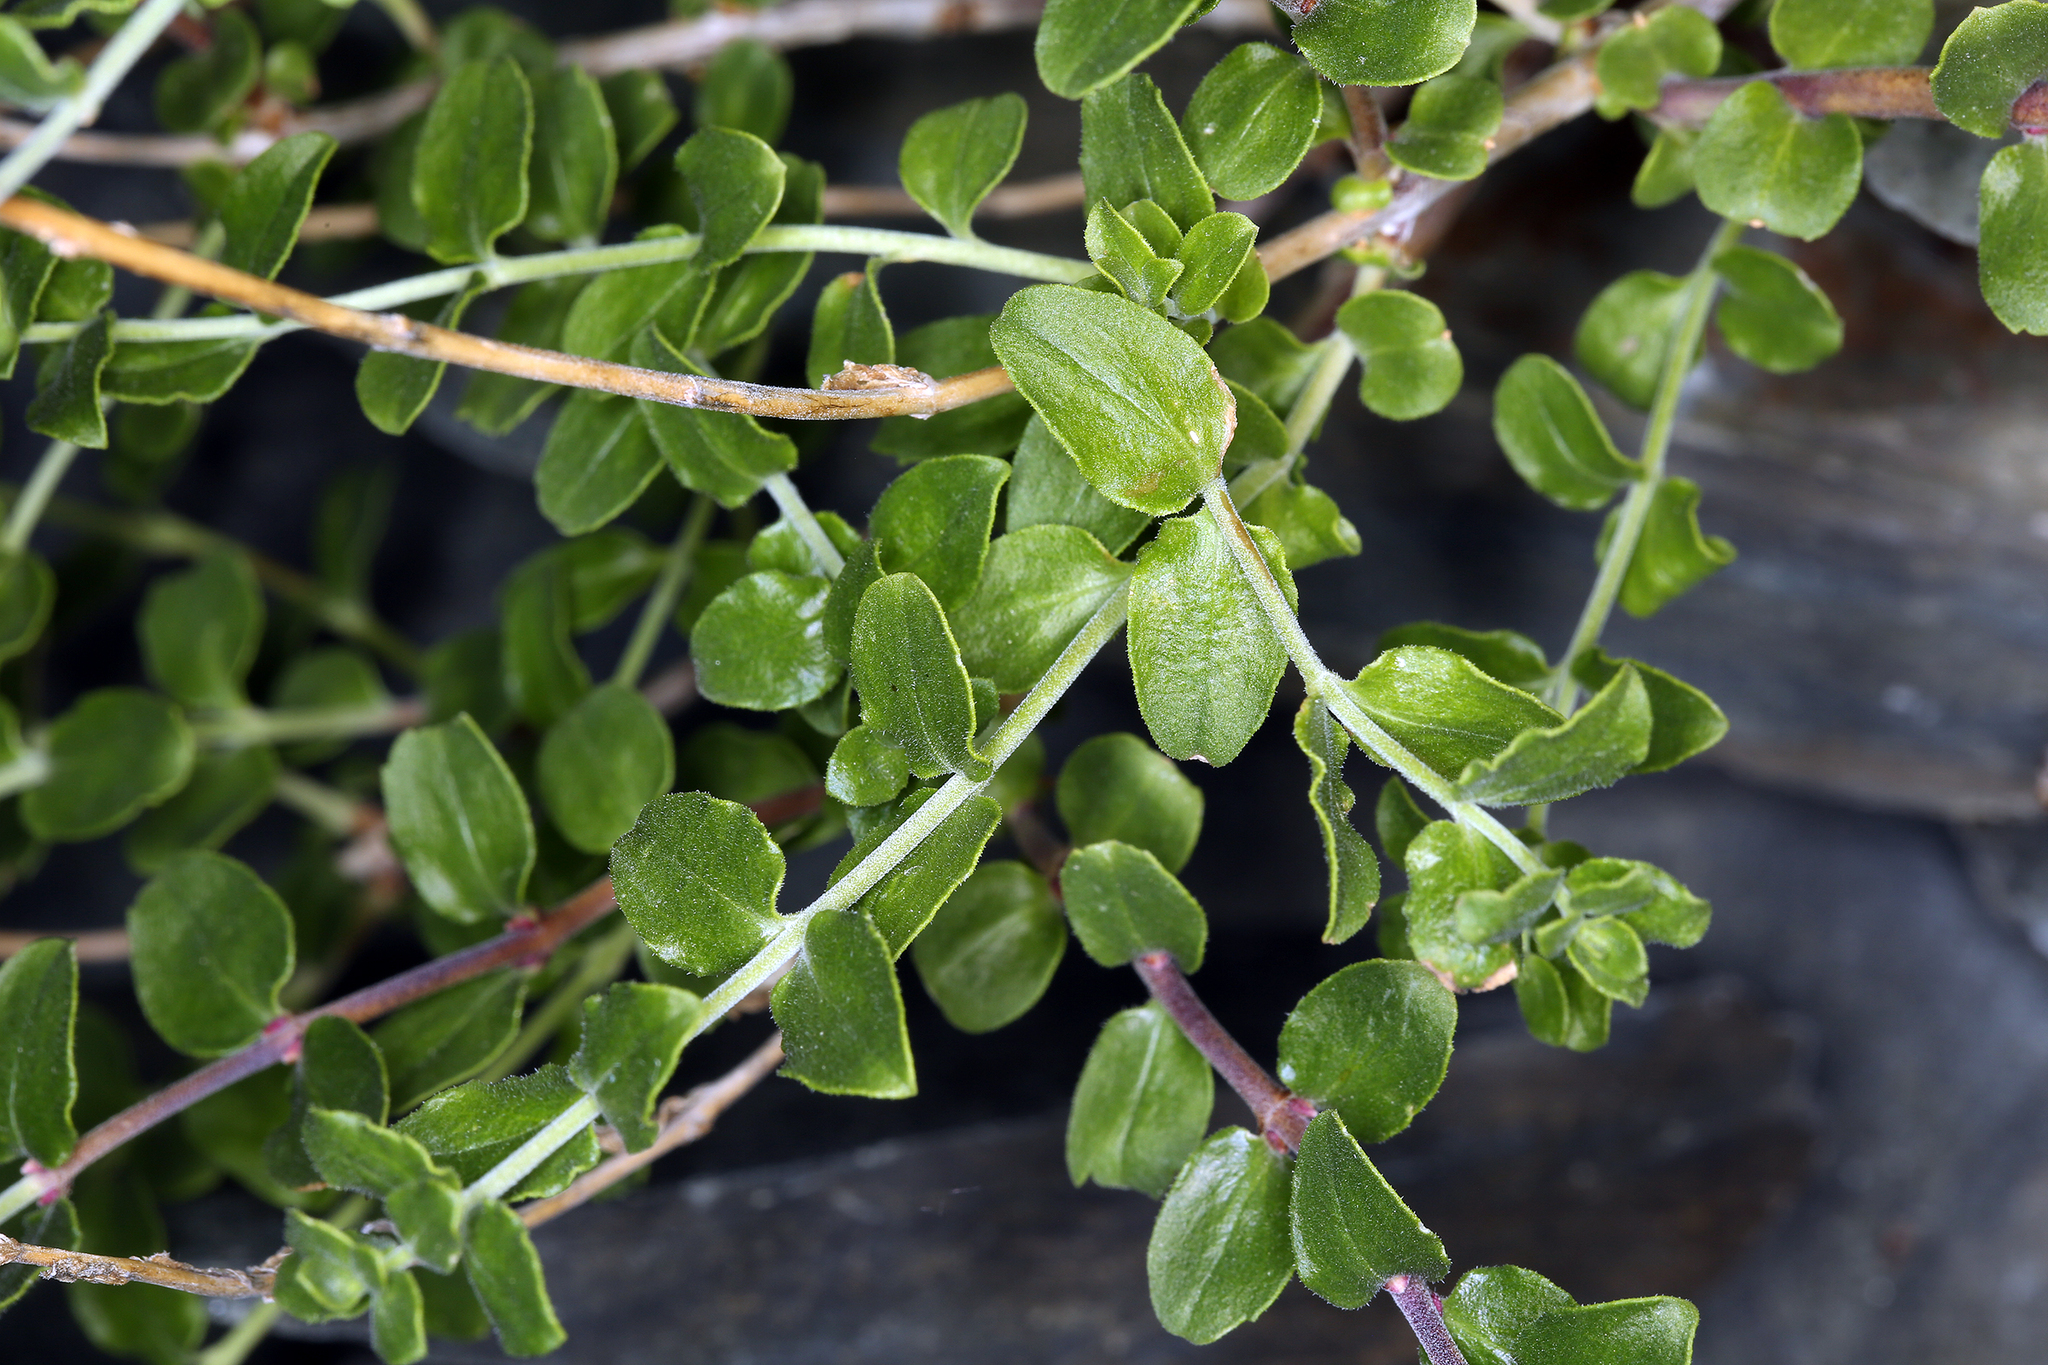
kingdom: Plantae
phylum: Tracheophyta
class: Magnoliopsida
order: Lamiales
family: Plantaginaceae
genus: Keckiella
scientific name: Keckiella rothrockii
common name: Rothrock's keckiella
